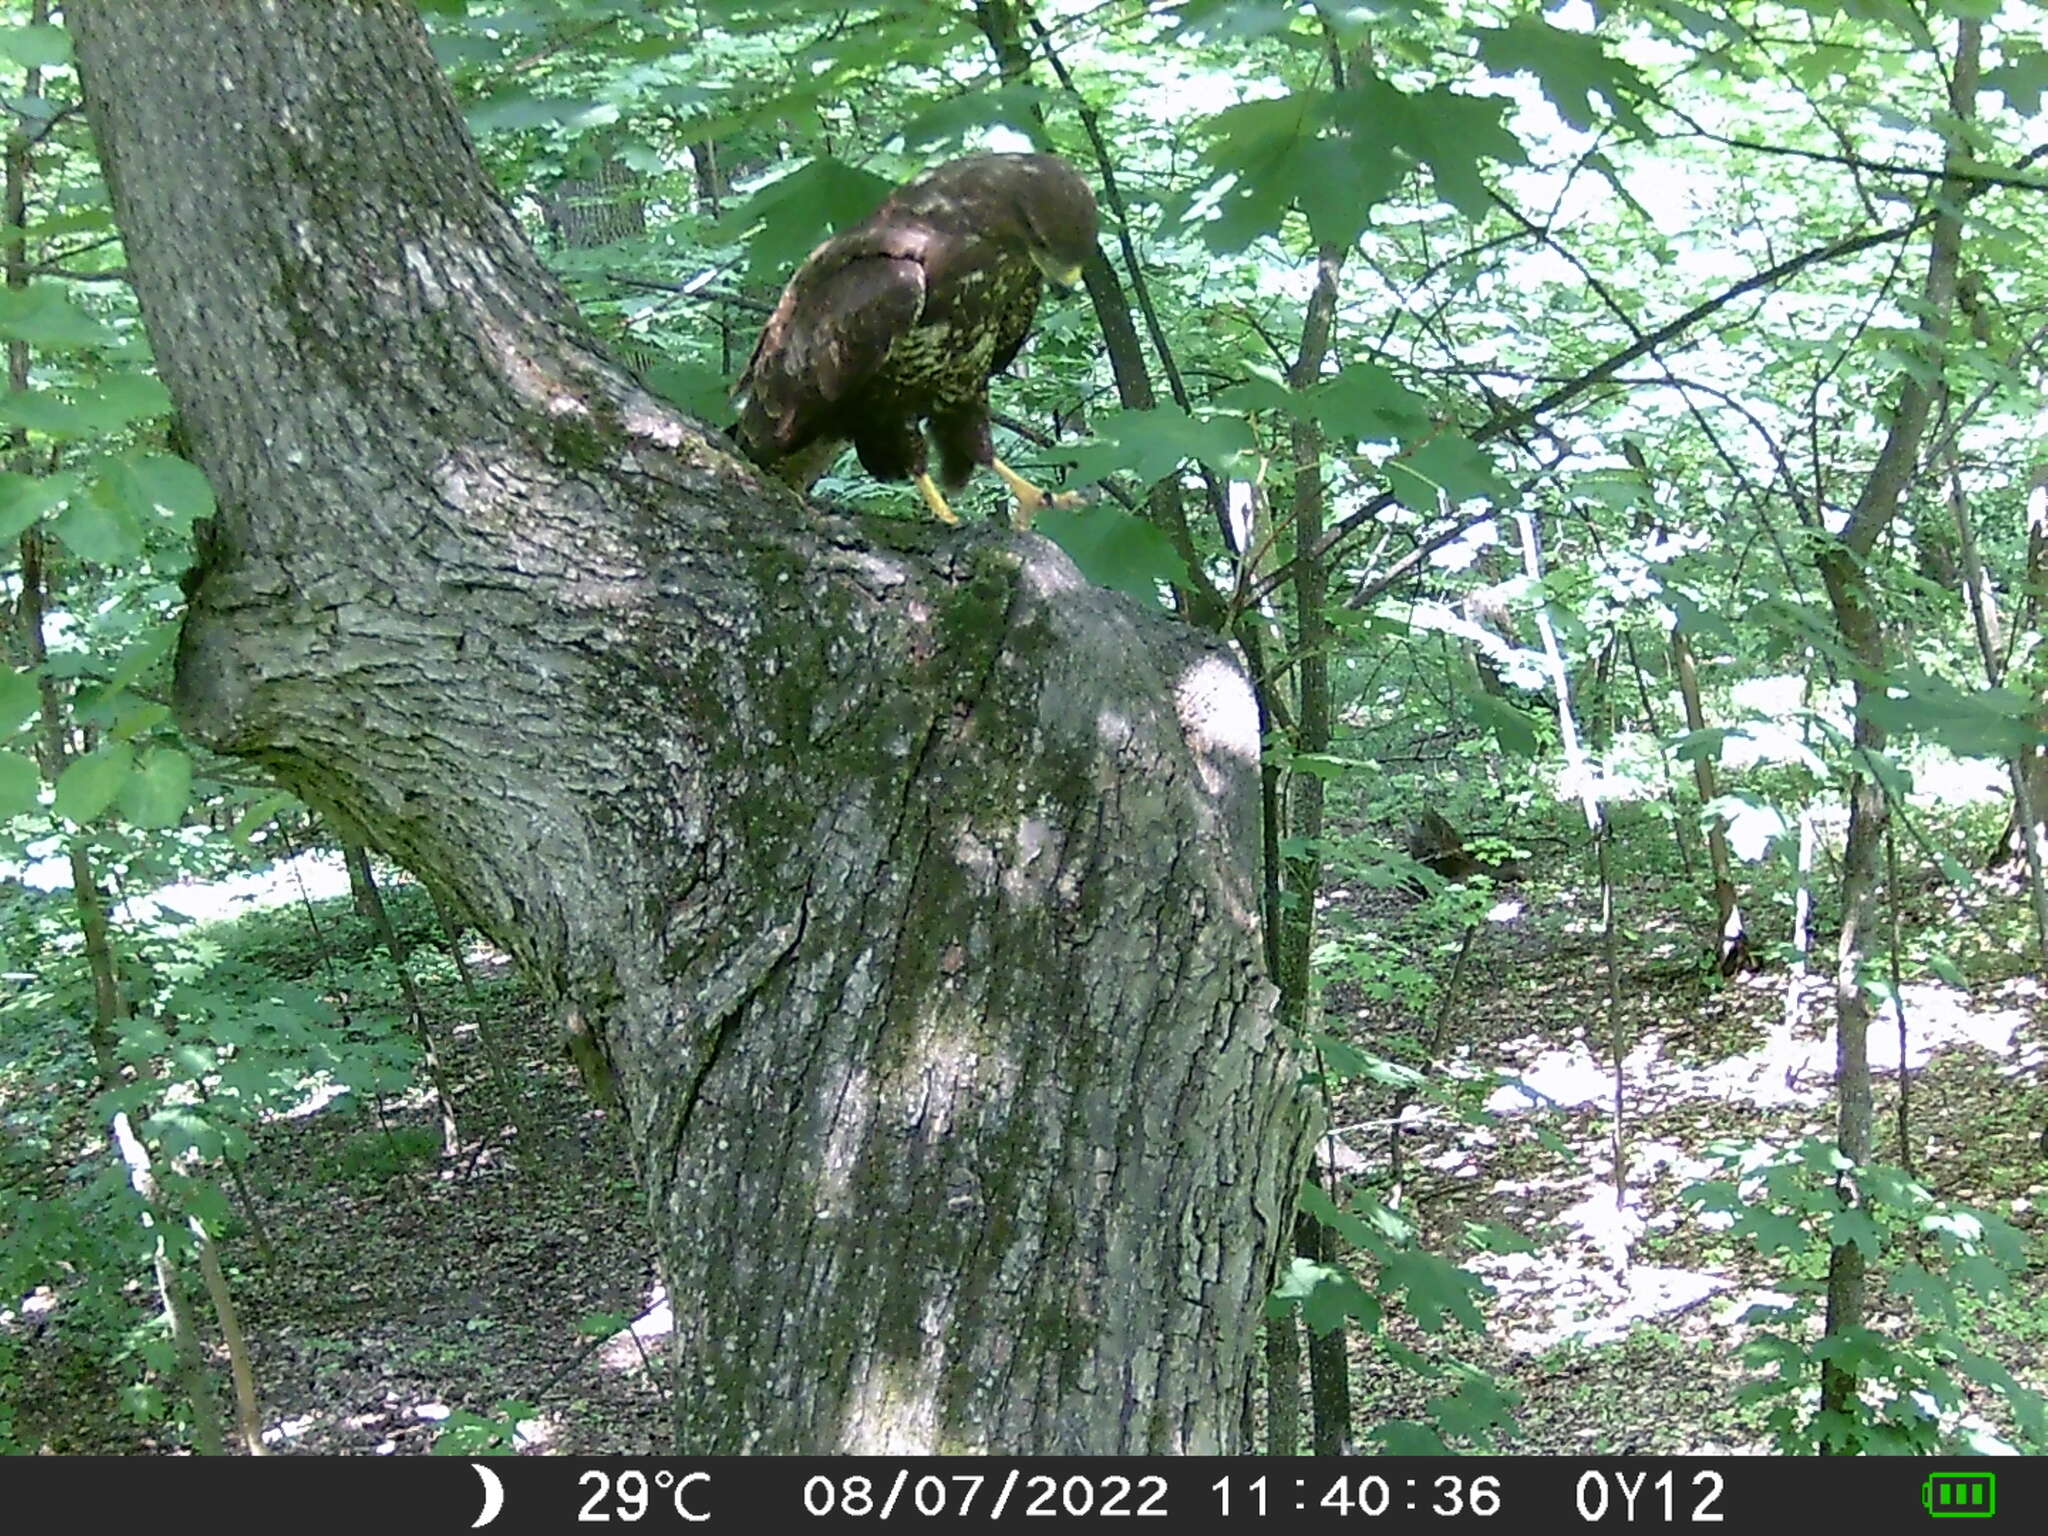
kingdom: Animalia
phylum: Chordata
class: Aves
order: Accipitriformes
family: Accipitridae
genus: Buteo
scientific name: Buteo buteo
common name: Common buzzard
